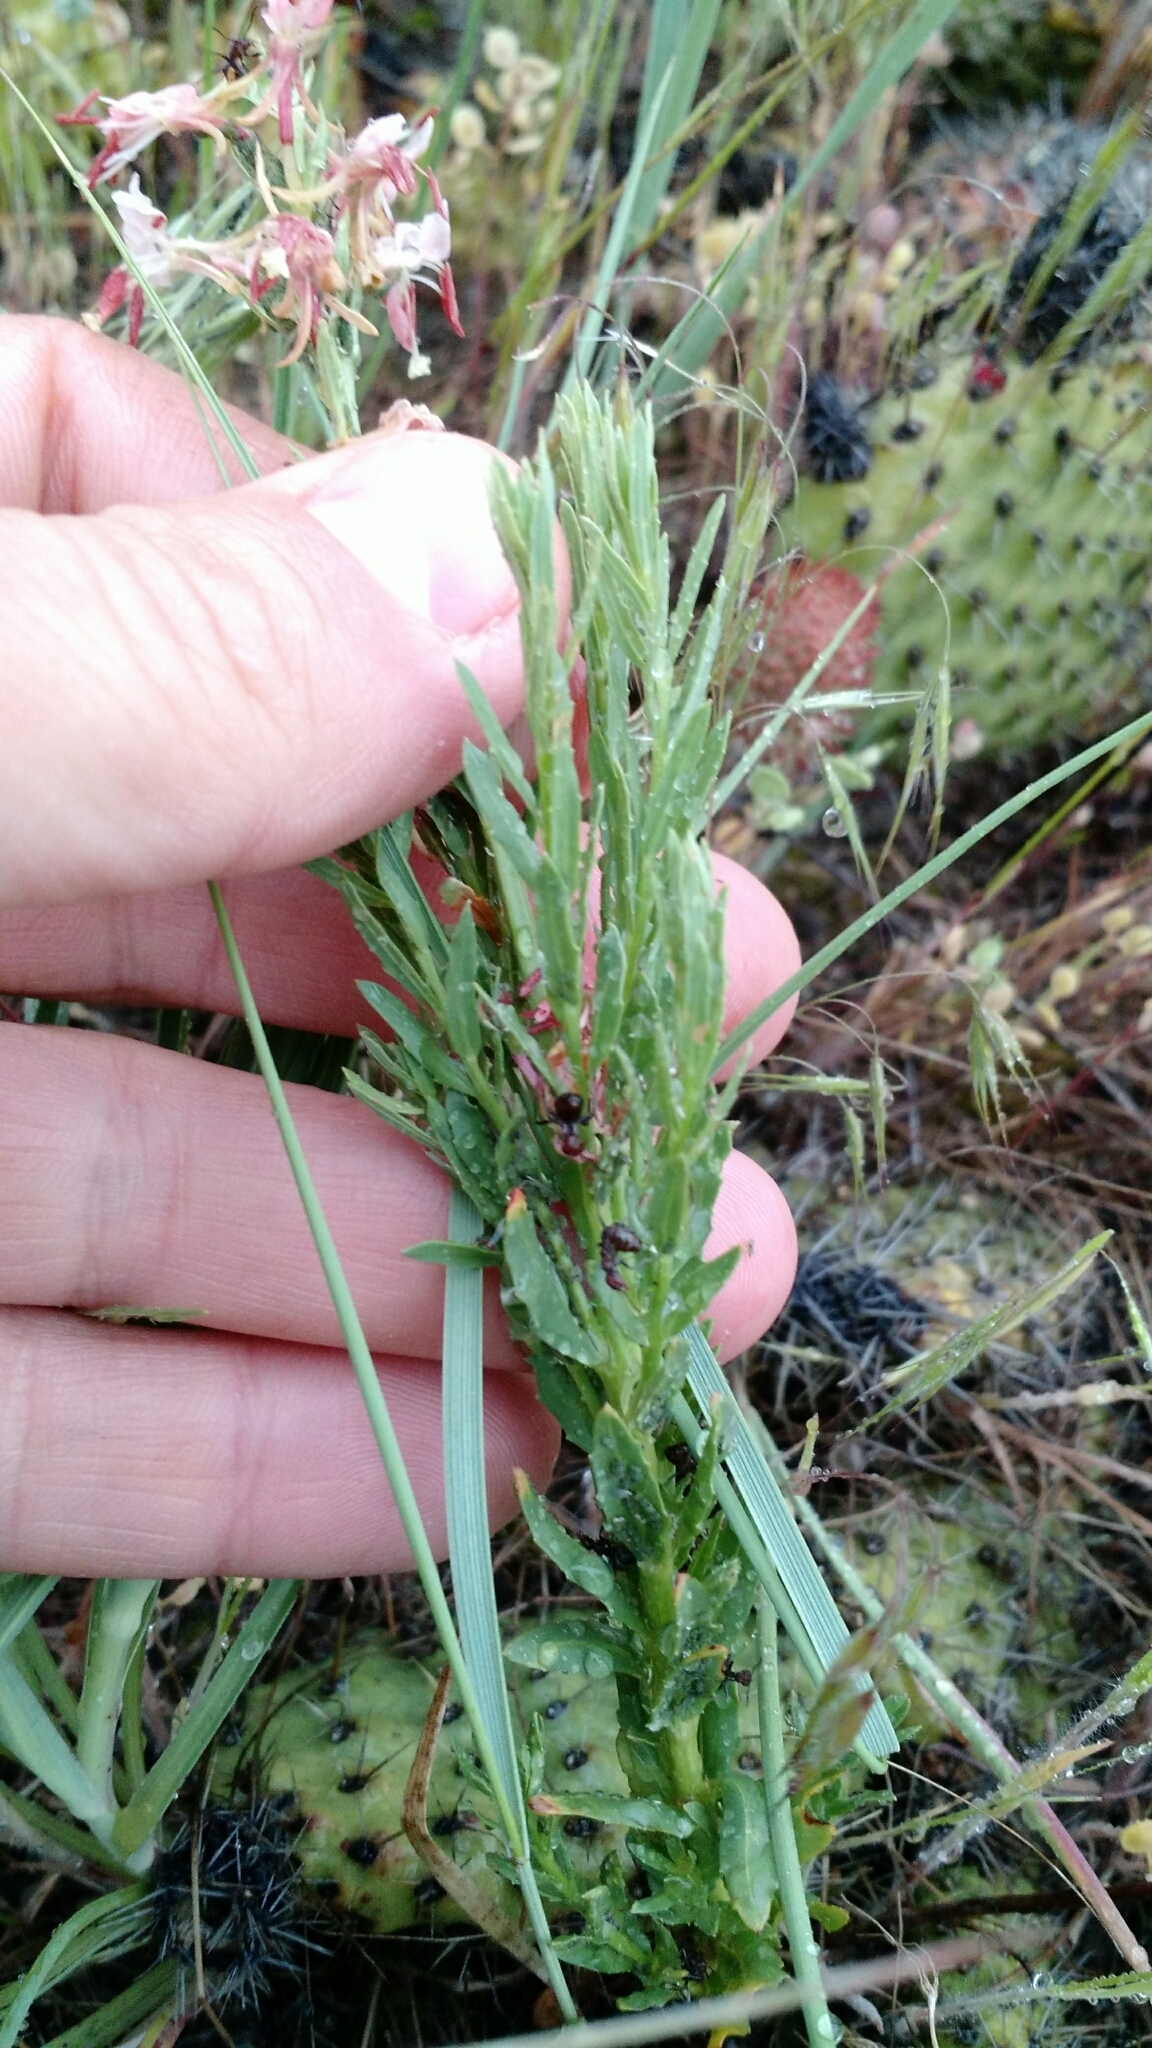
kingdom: Plantae
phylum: Tracheophyta
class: Magnoliopsida
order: Myrtales
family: Onagraceae
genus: Oenothera
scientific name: Oenothera suffrutescens
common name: Scarlet beeblossom
